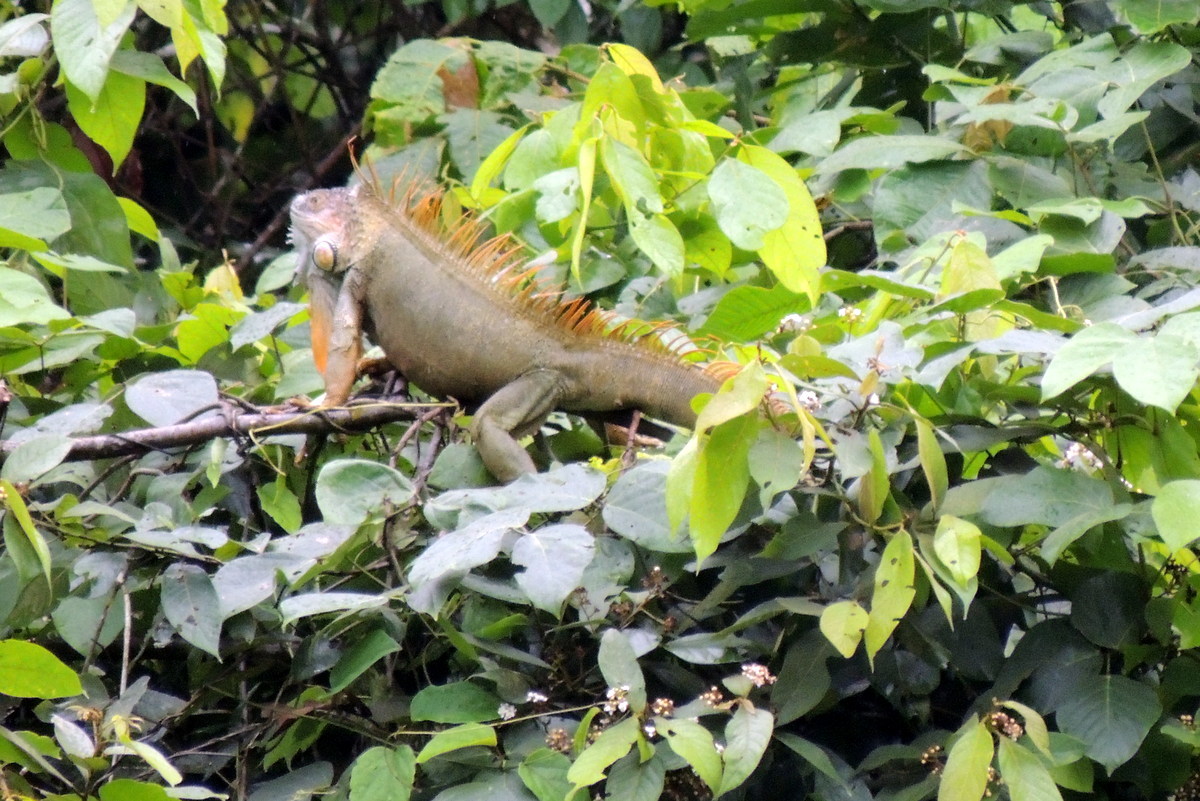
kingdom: Animalia
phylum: Chordata
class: Squamata
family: Iguanidae
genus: Iguana
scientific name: Iguana iguana
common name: Green iguana
